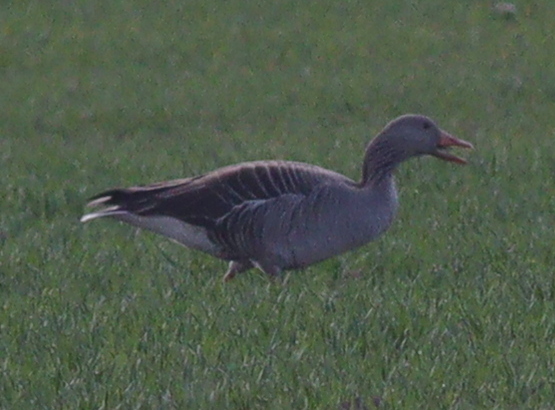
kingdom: Animalia
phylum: Chordata
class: Aves
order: Anseriformes
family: Anatidae
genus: Anser
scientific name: Anser anser
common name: Greylag goose
